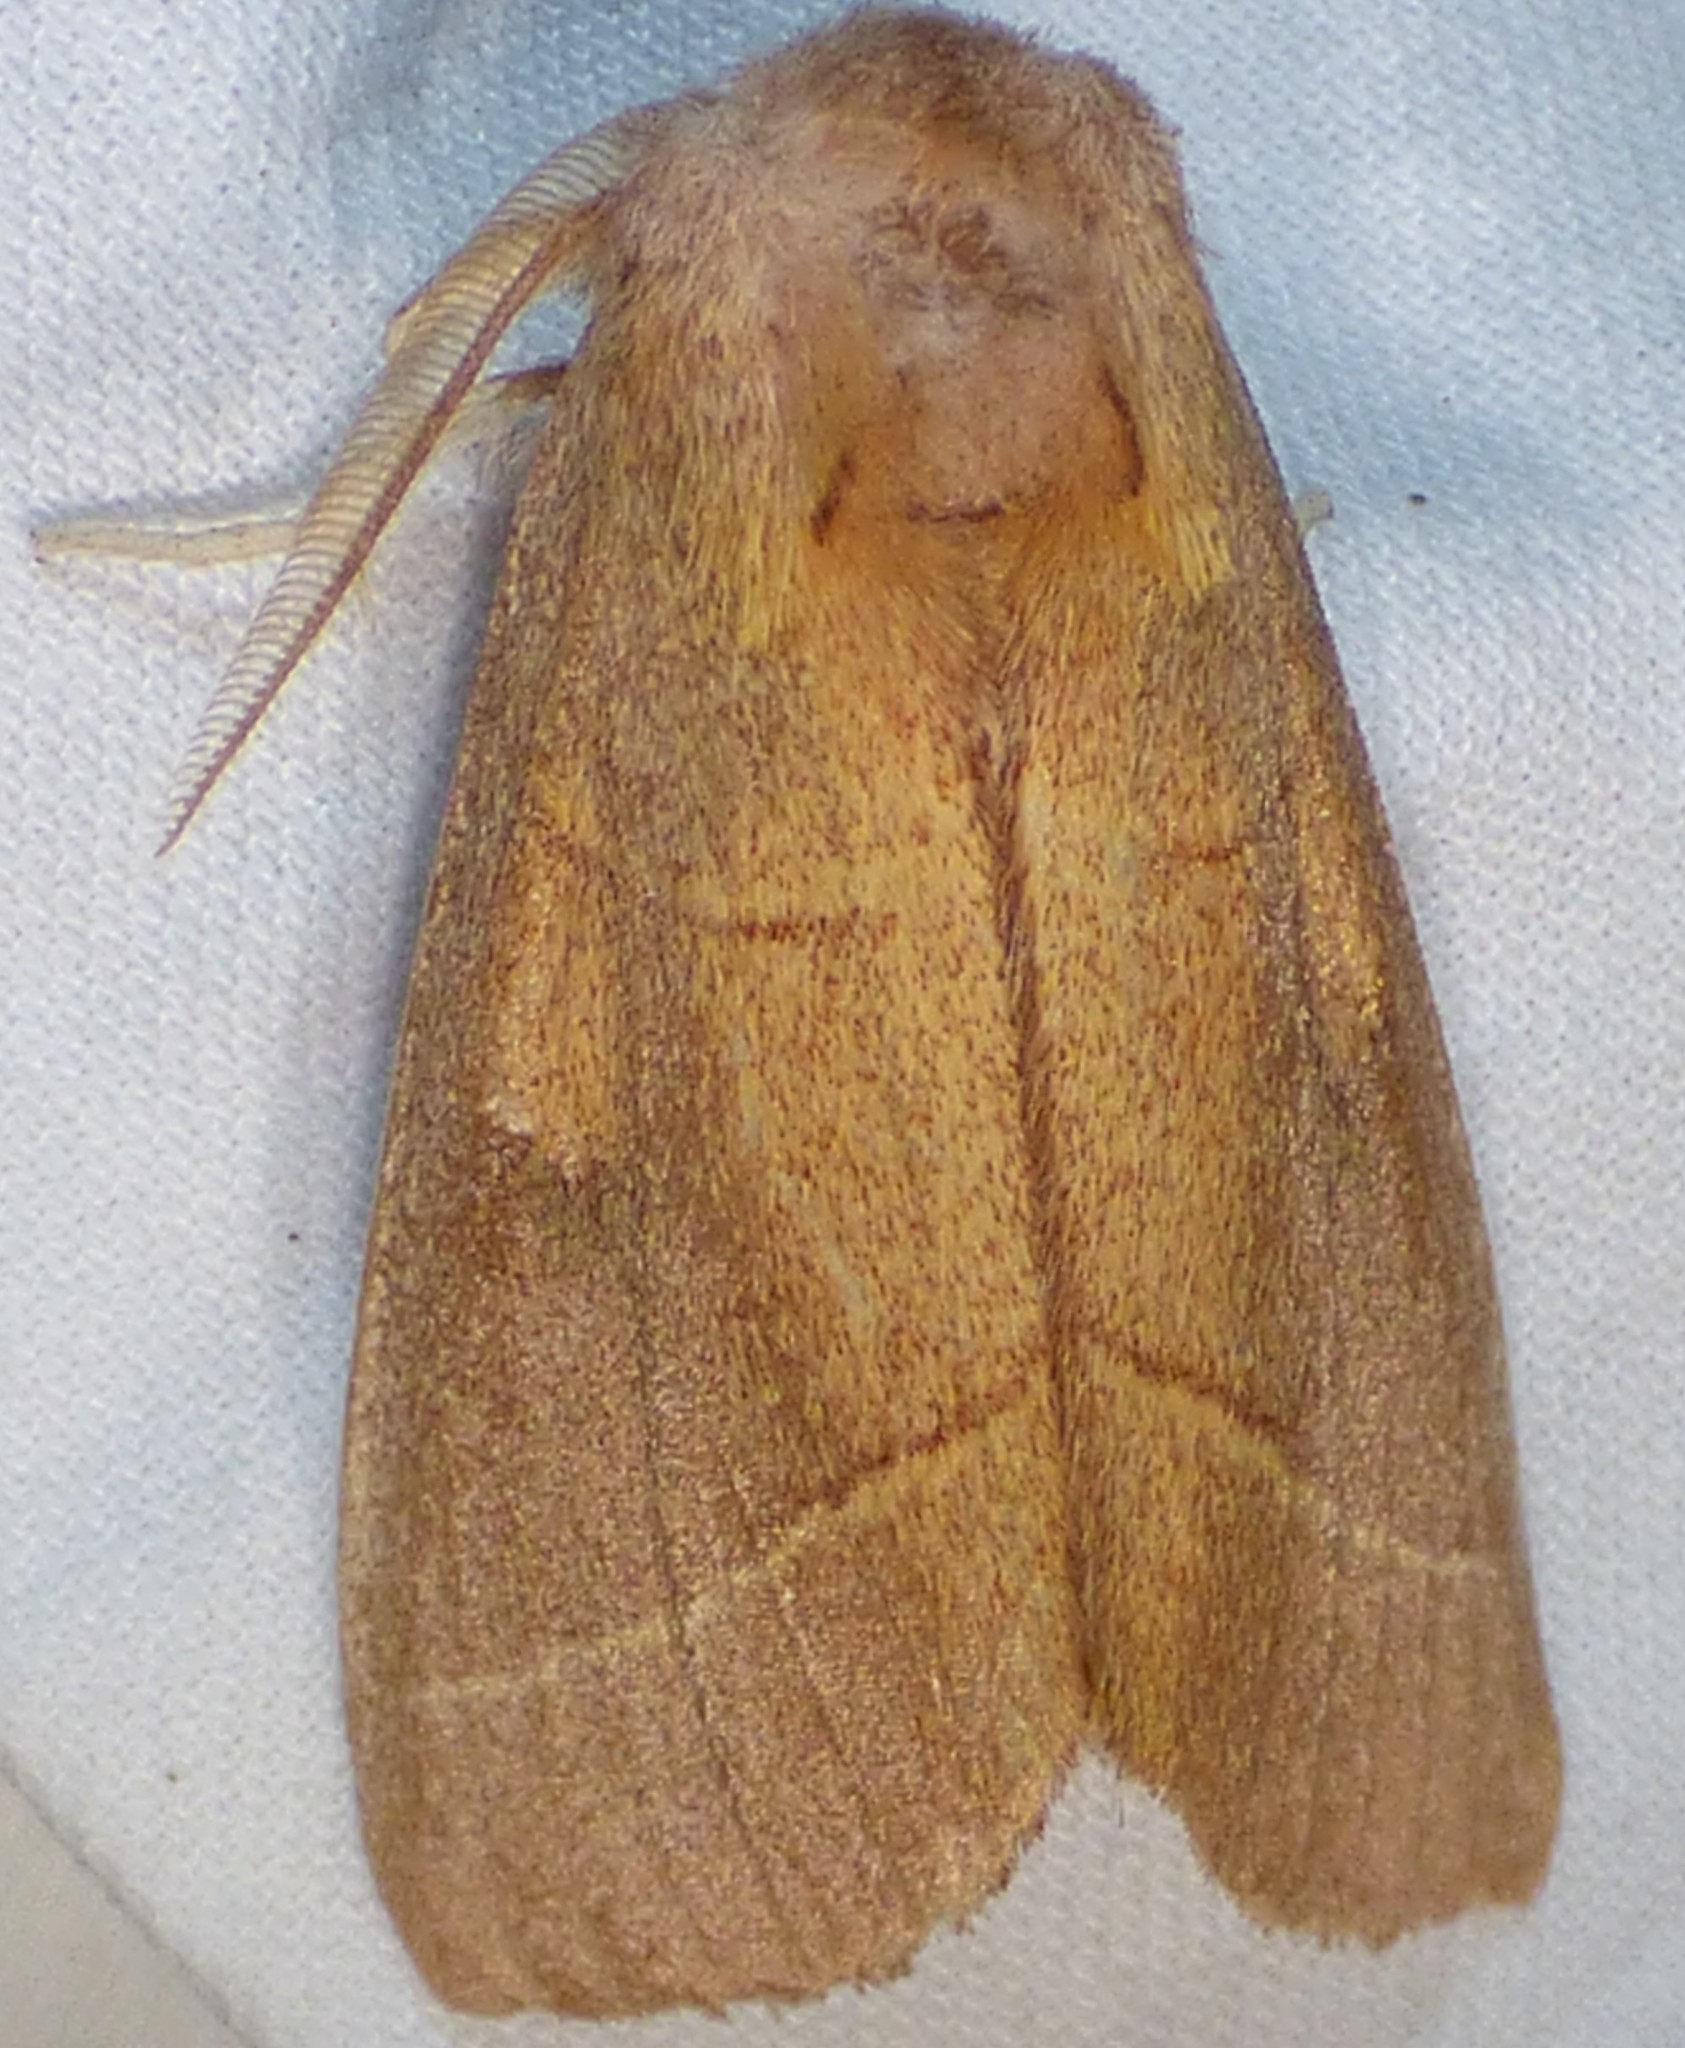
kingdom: Animalia
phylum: Arthropoda
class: Insecta
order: Lepidoptera
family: Notodontidae
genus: Nadata
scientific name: Nadata gibbosa
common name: White-dotted prominent
